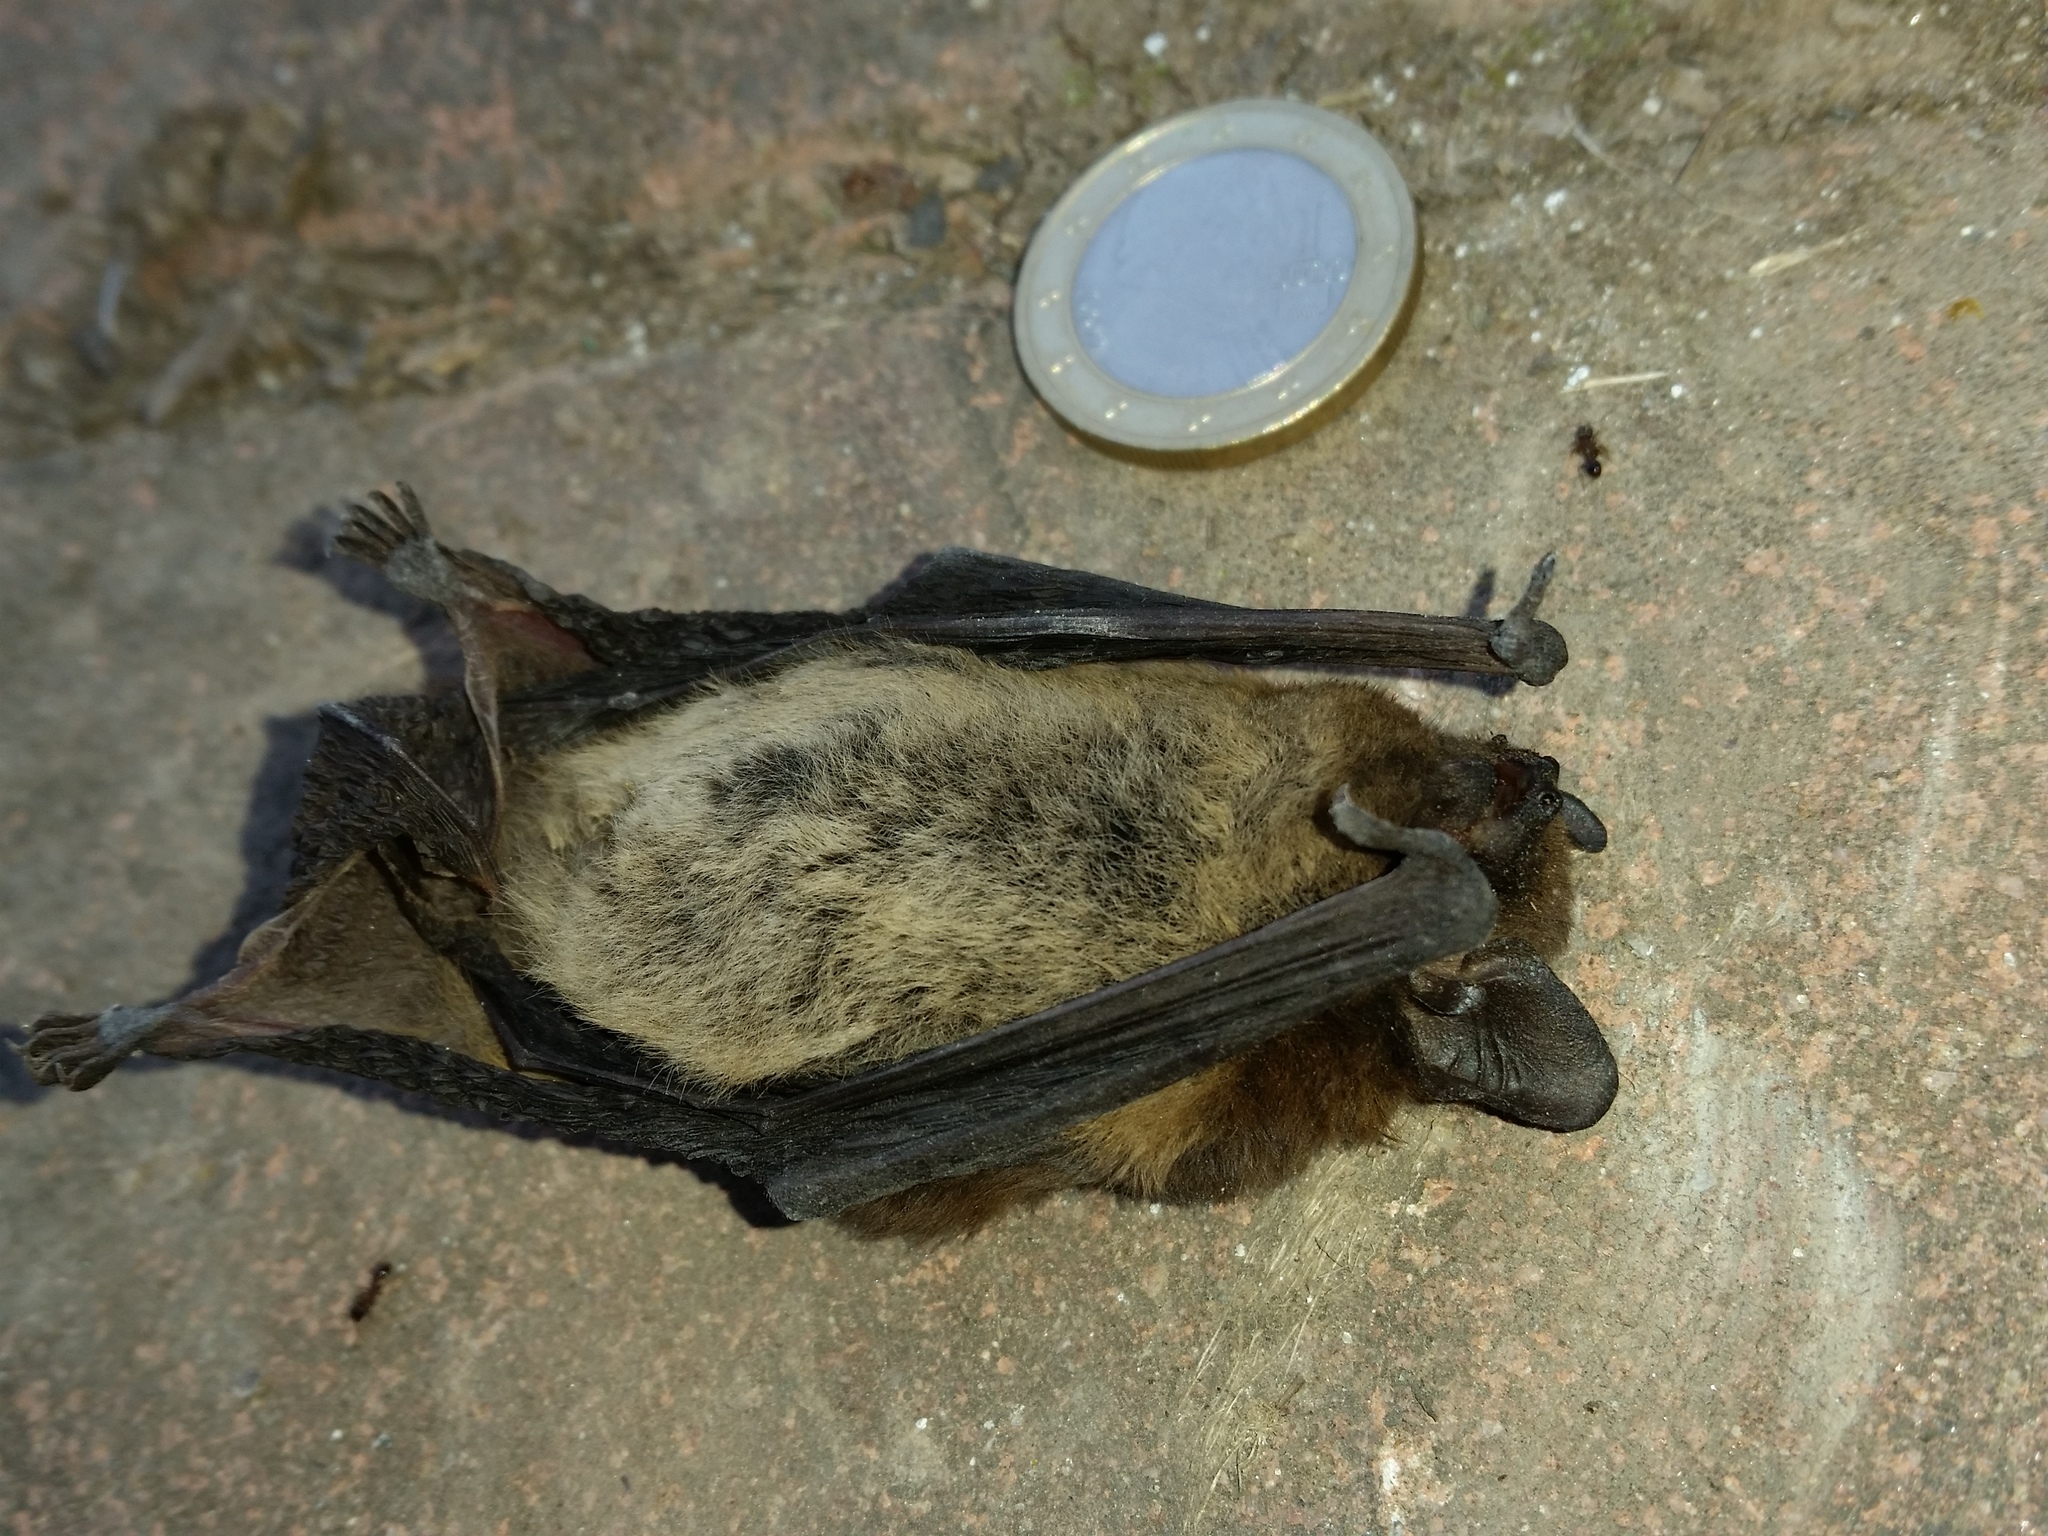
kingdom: Animalia
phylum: Chordata
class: Mammalia
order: Chiroptera
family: Vespertilionidae
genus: Hypsugo
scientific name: Hypsugo savii
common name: Savi's pipistrelle
